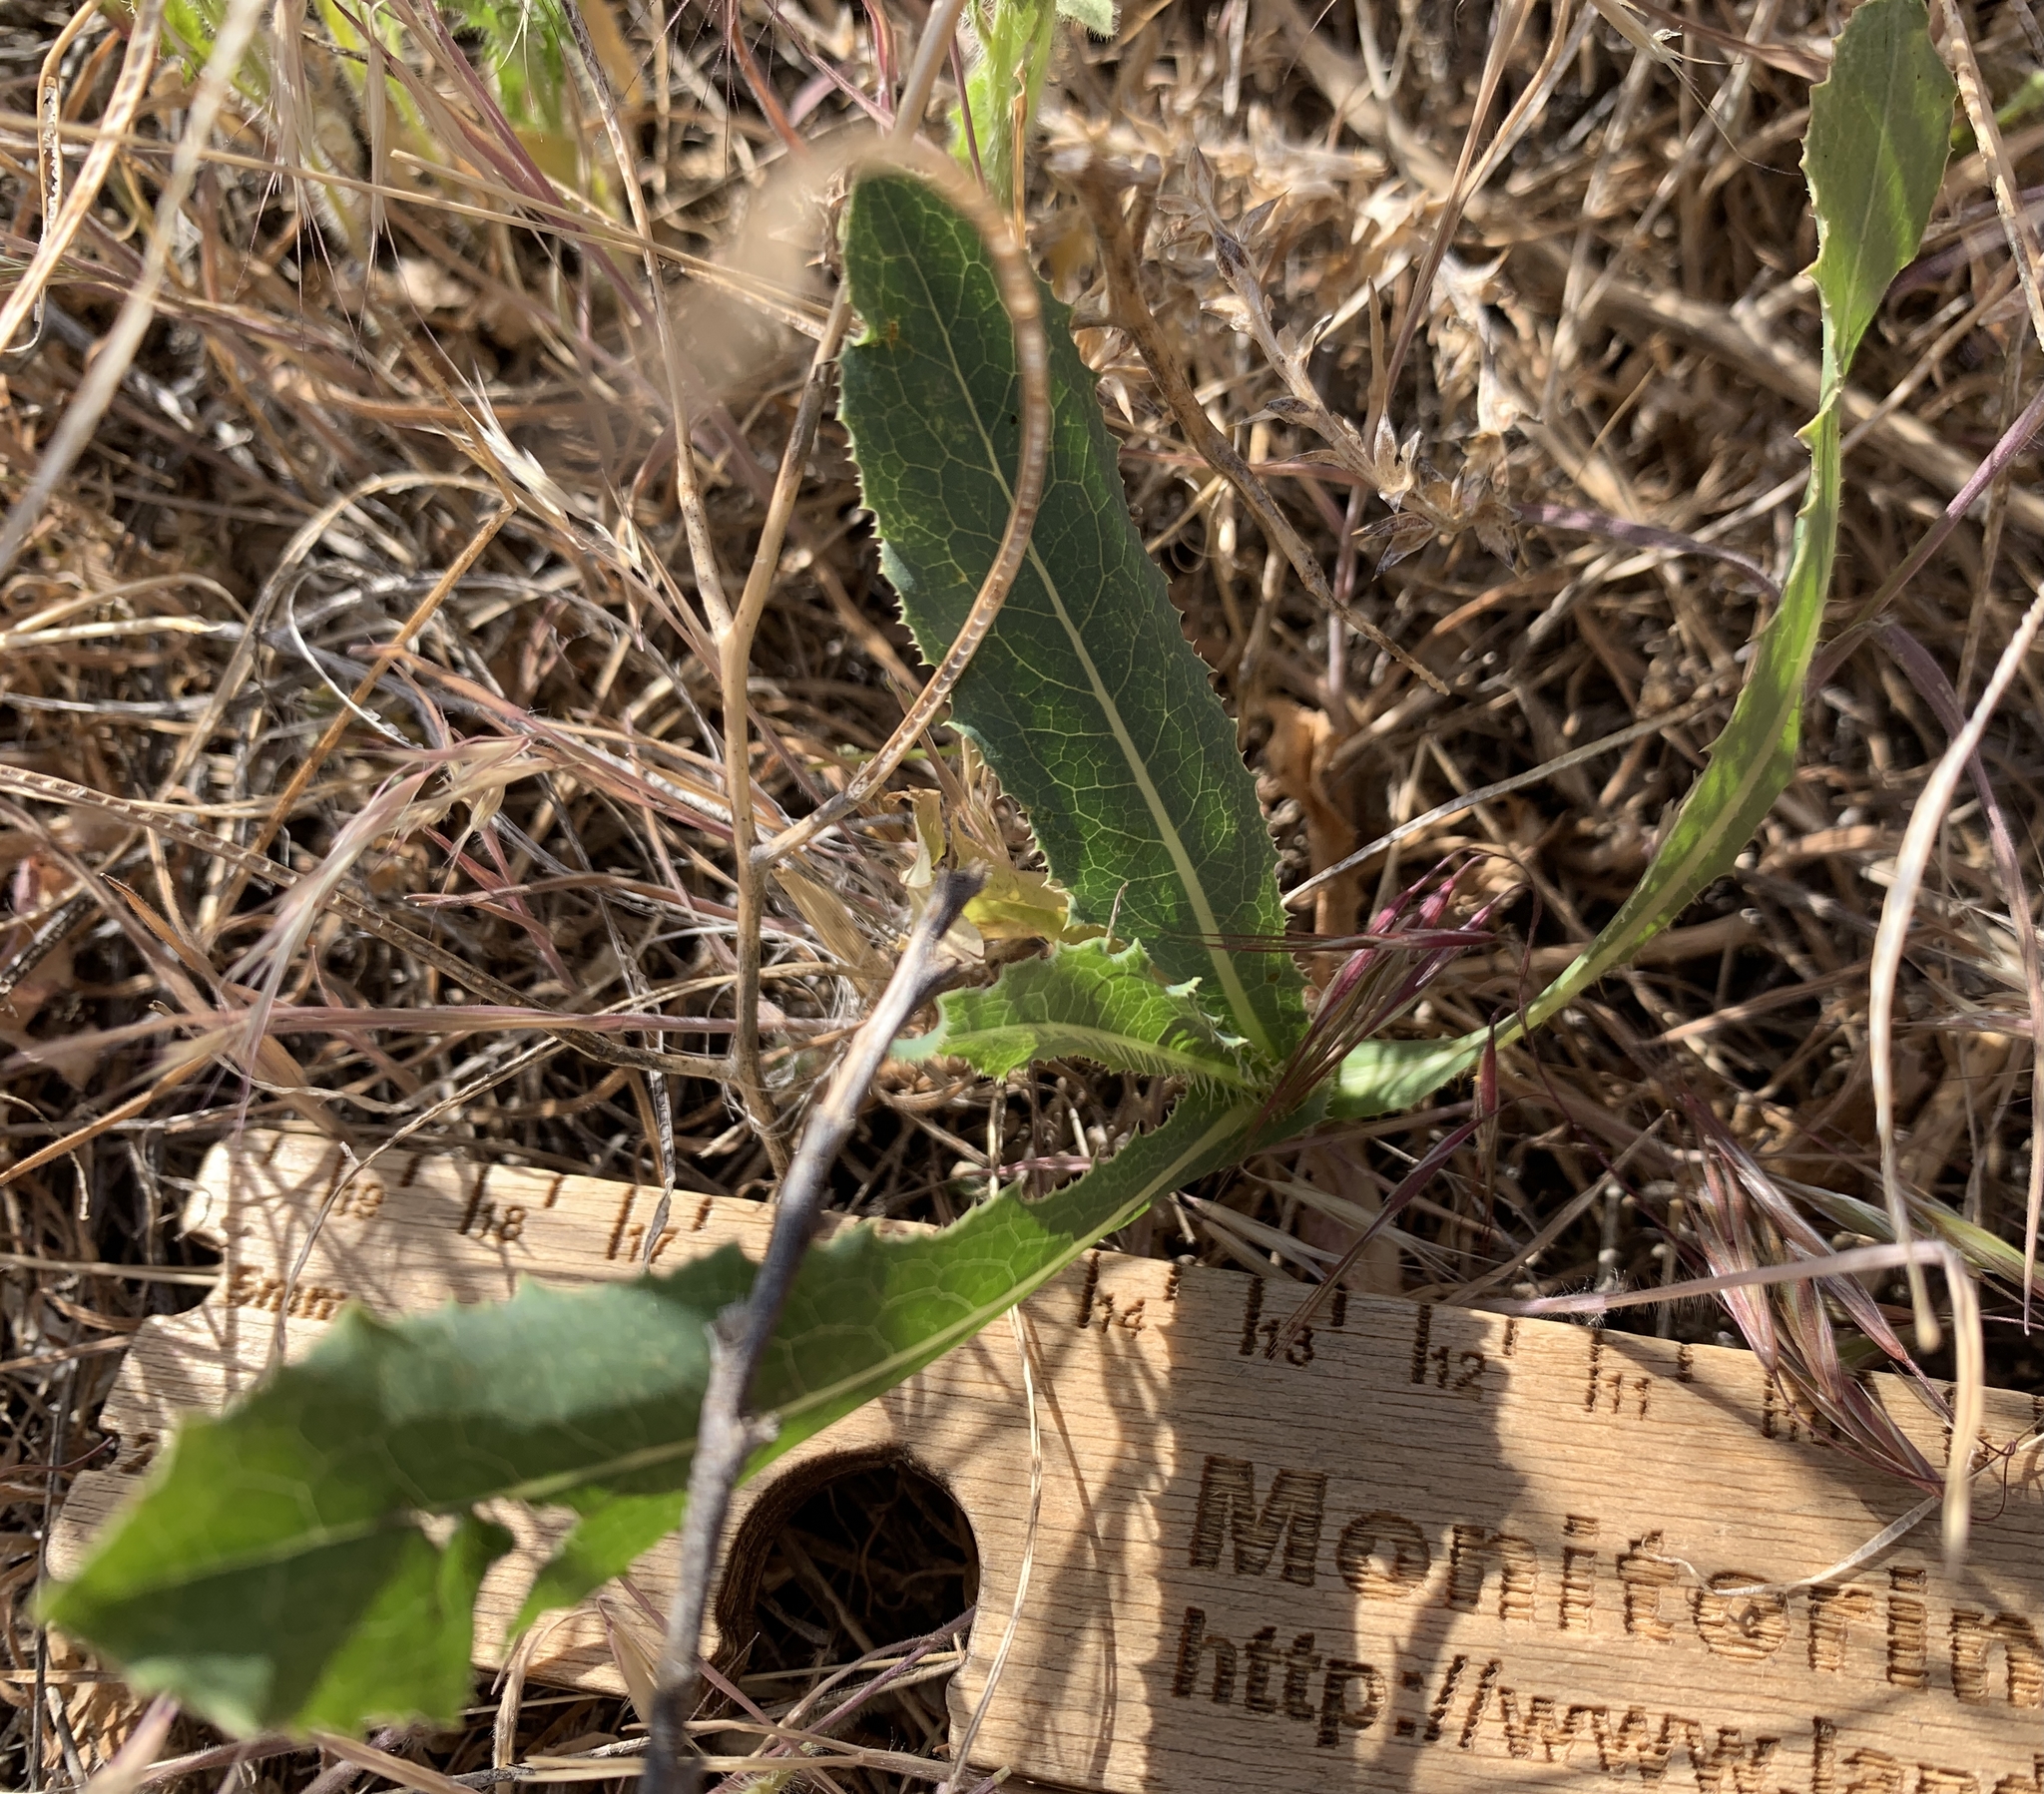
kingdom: Plantae
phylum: Tracheophyta
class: Magnoliopsida
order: Asterales
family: Asteraceae
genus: Lactuca
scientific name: Lactuca serriola
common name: Prickly lettuce
